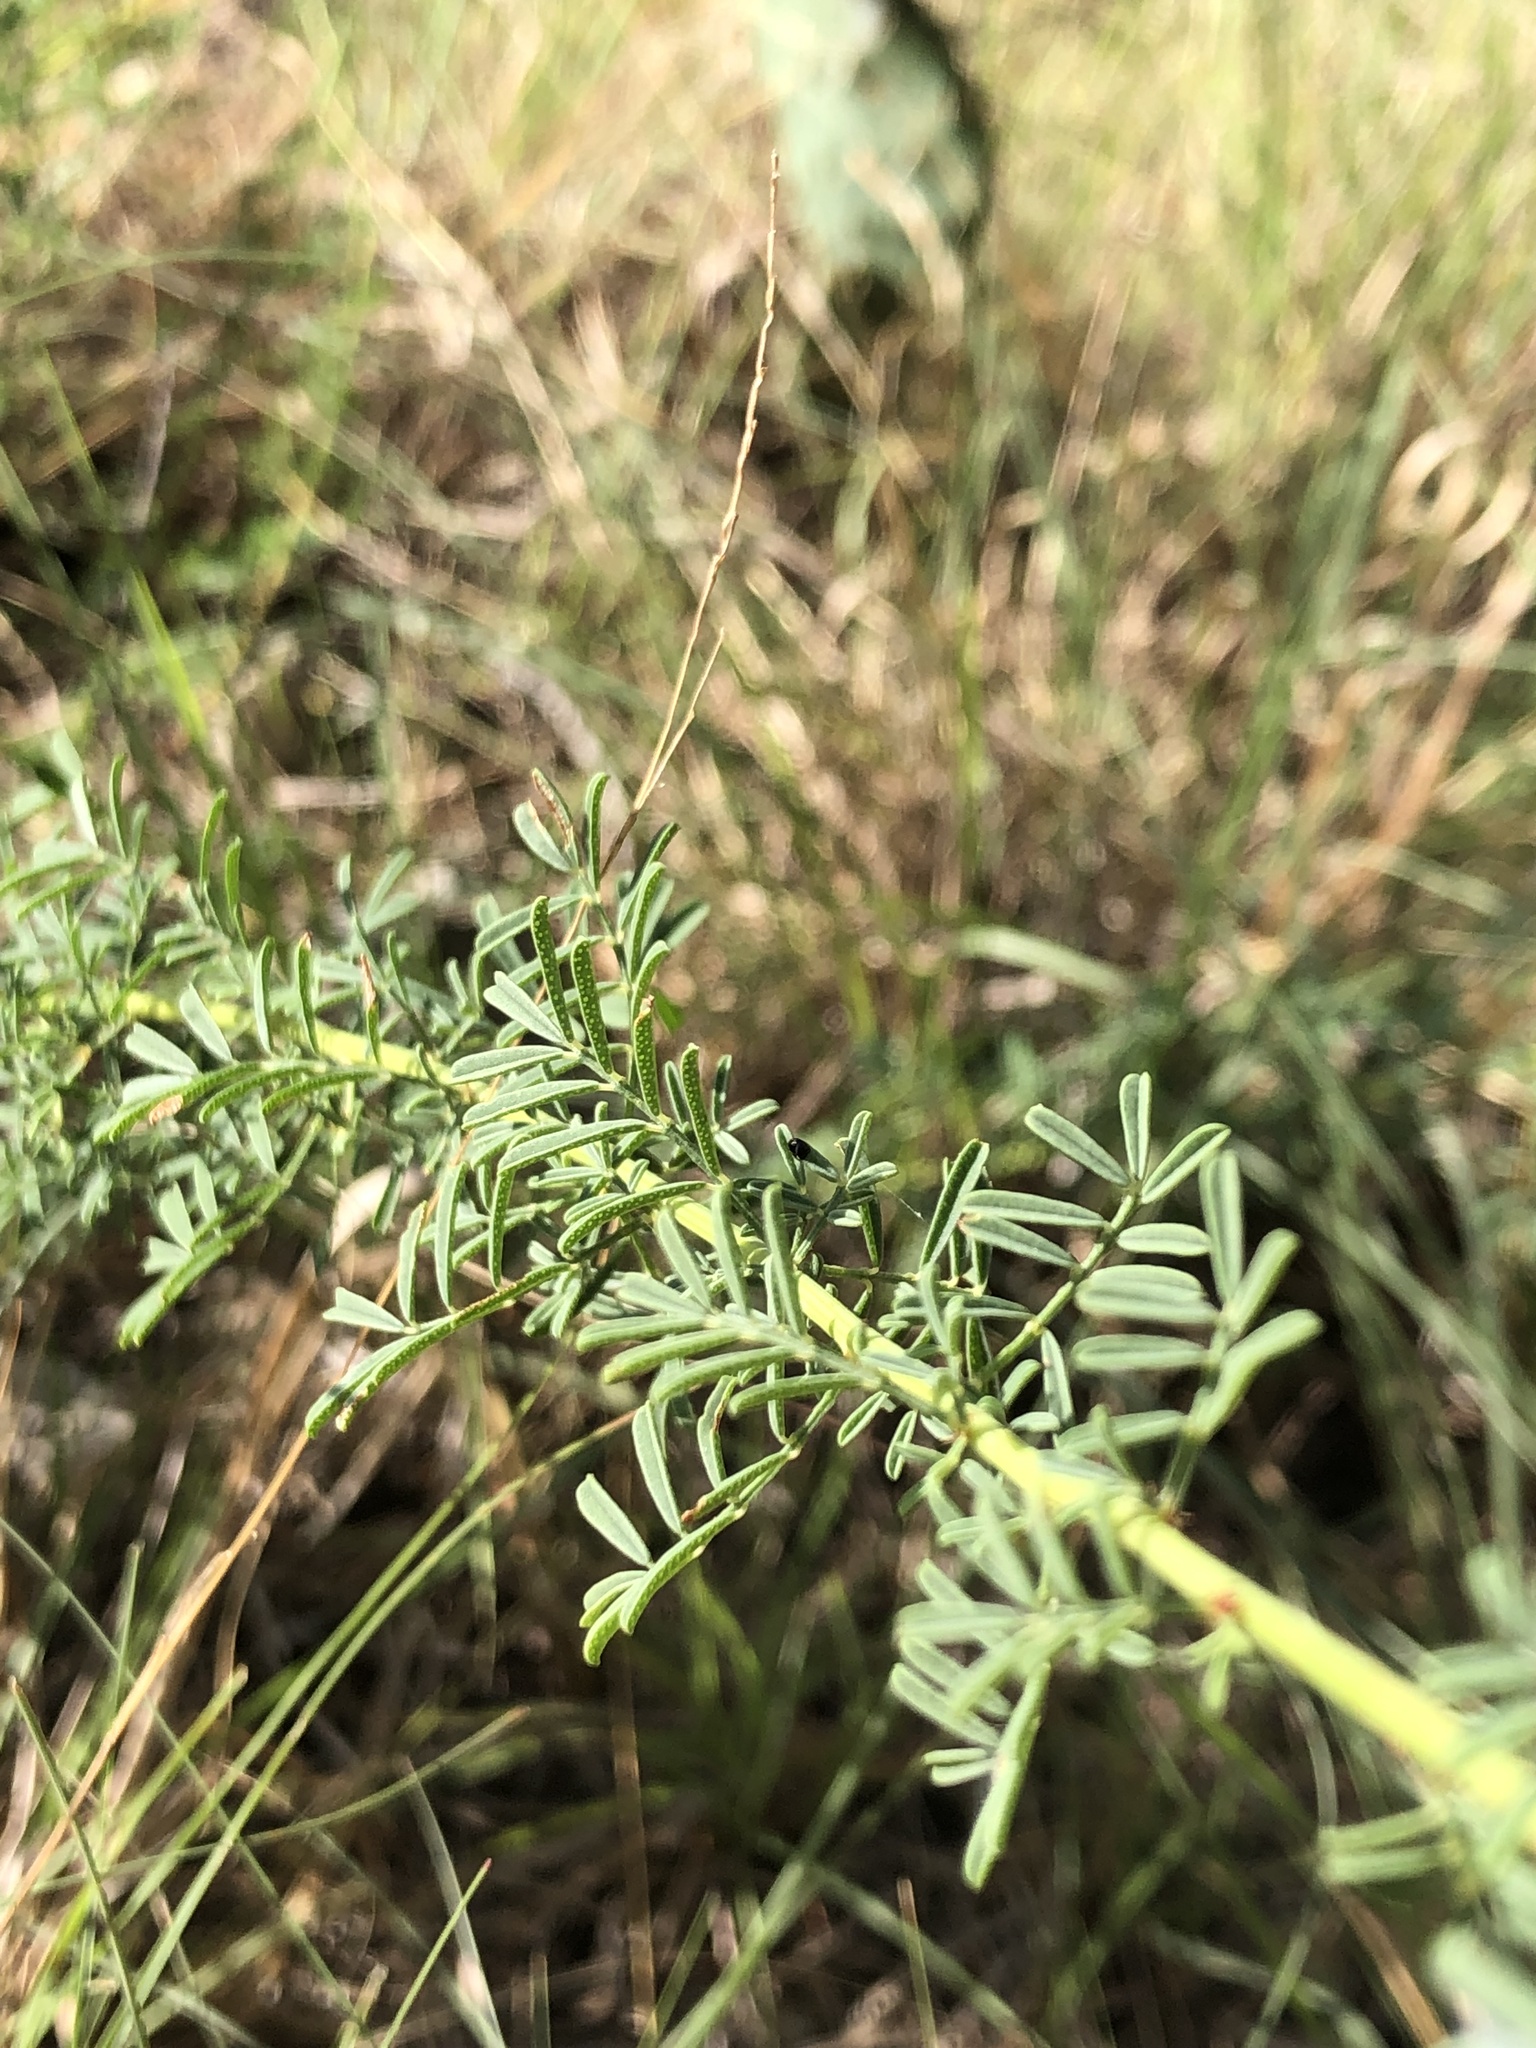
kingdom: Plantae
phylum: Tracheophyta
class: Magnoliopsida
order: Fabales
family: Fabaceae
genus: Dalea
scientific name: Dalea multiflora
